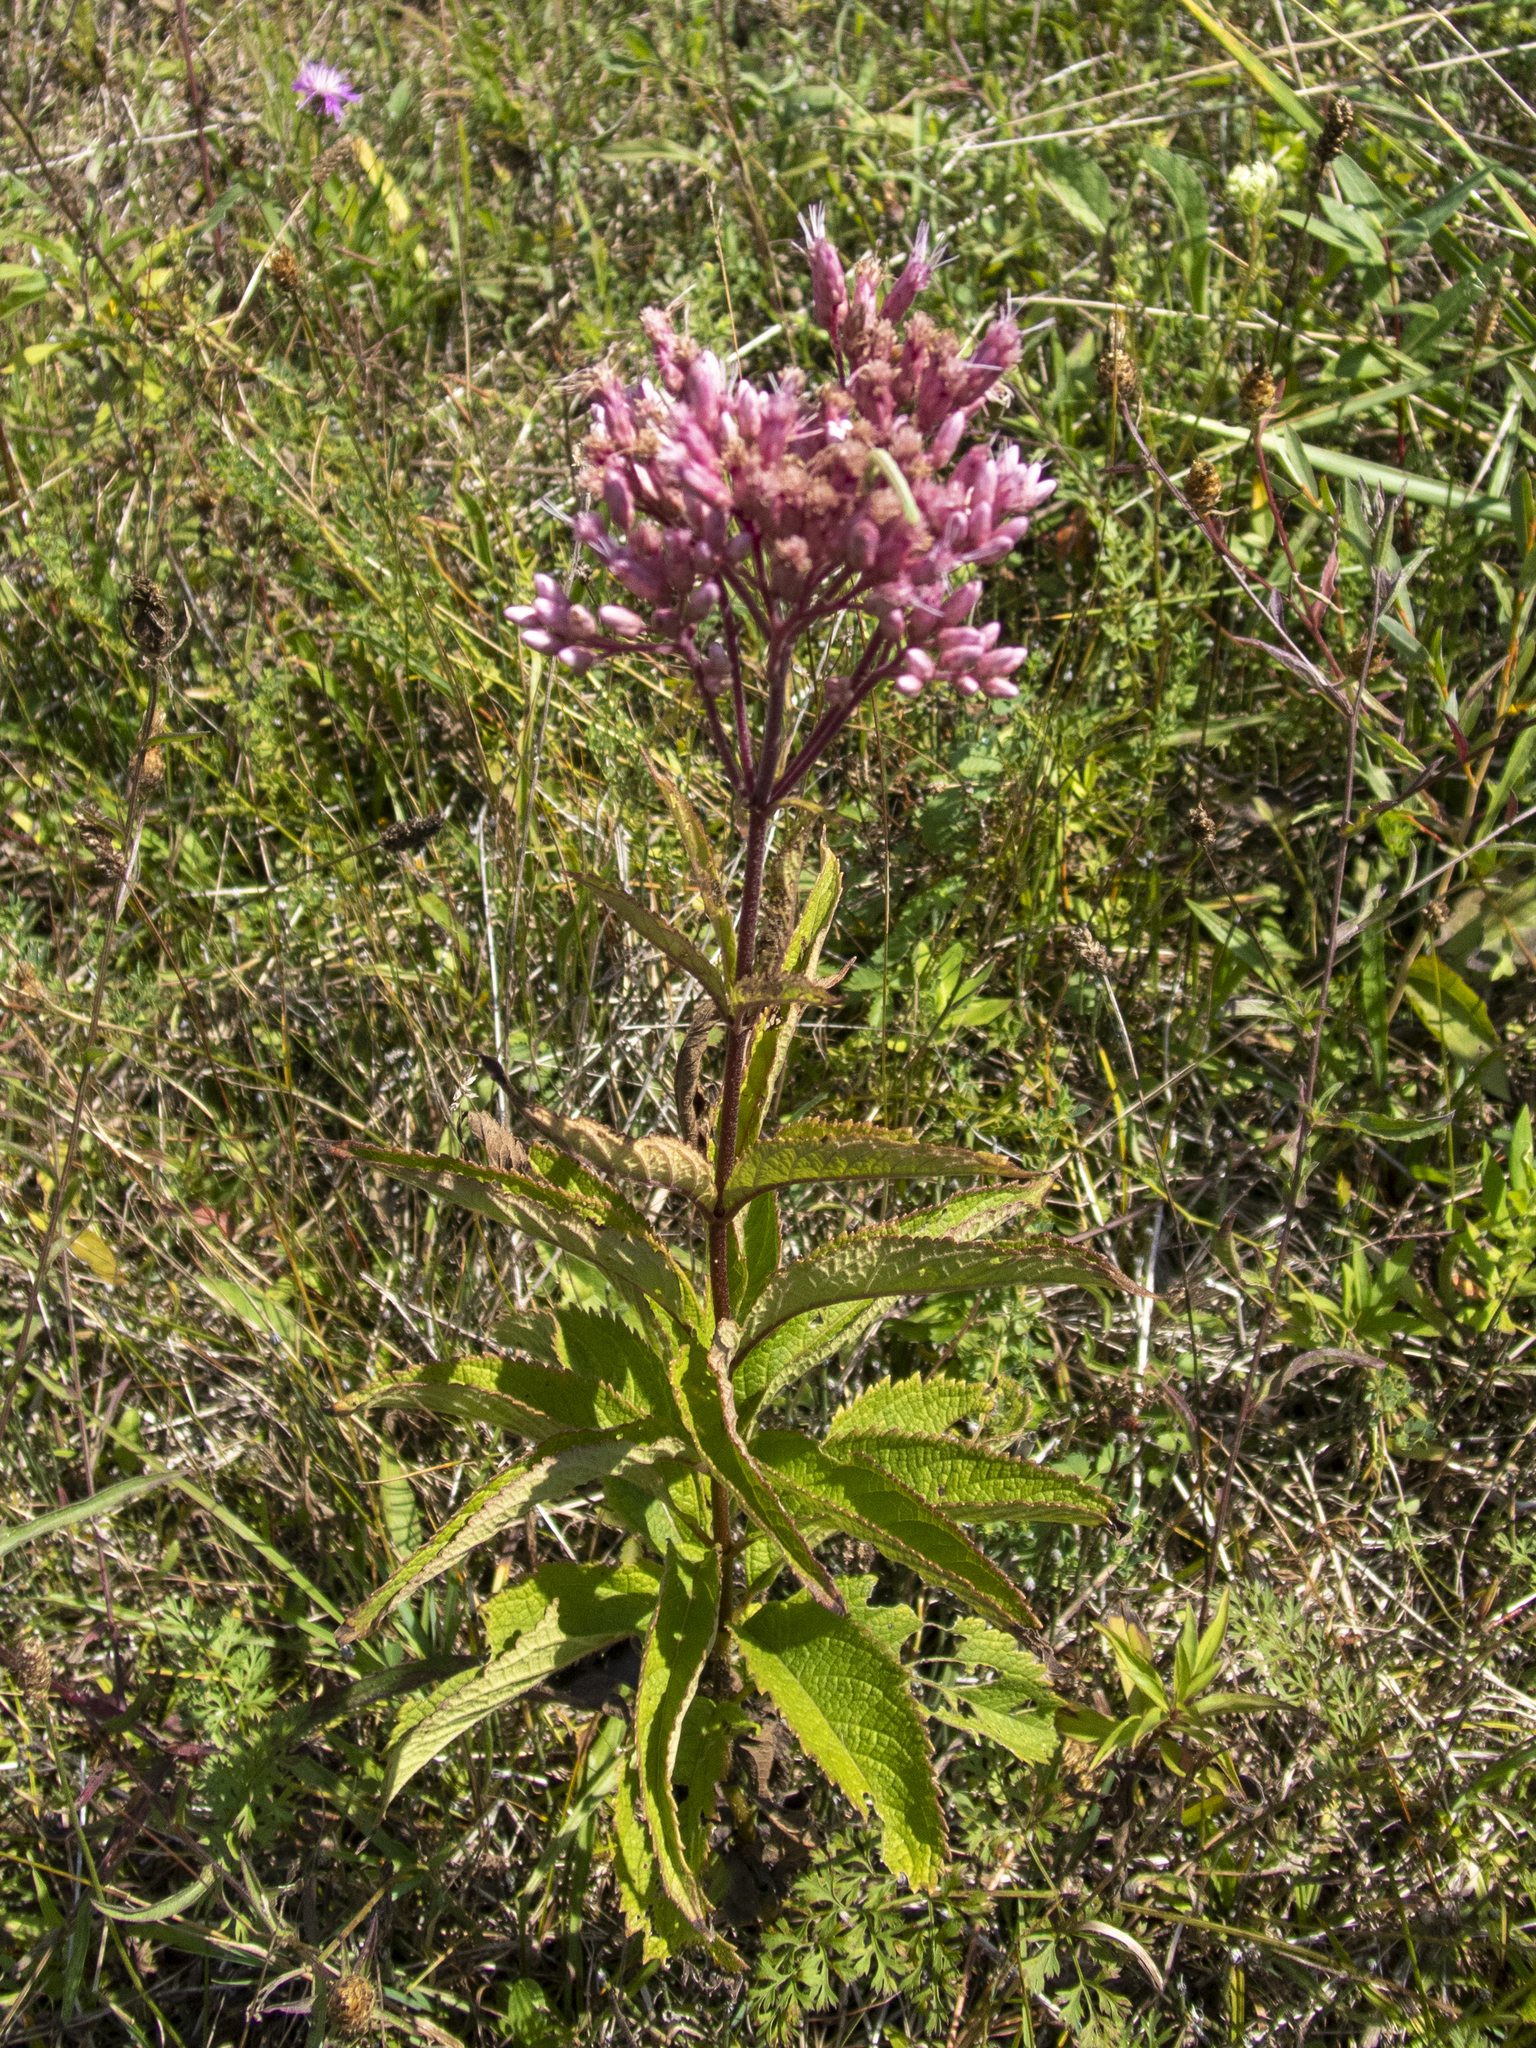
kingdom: Plantae
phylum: Tracheophyta
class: Magnoliopsida
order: Asterales
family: Asteraceae
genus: Eutrochium
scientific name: Eutrochium maculatum
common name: Spotted joe pye weed
